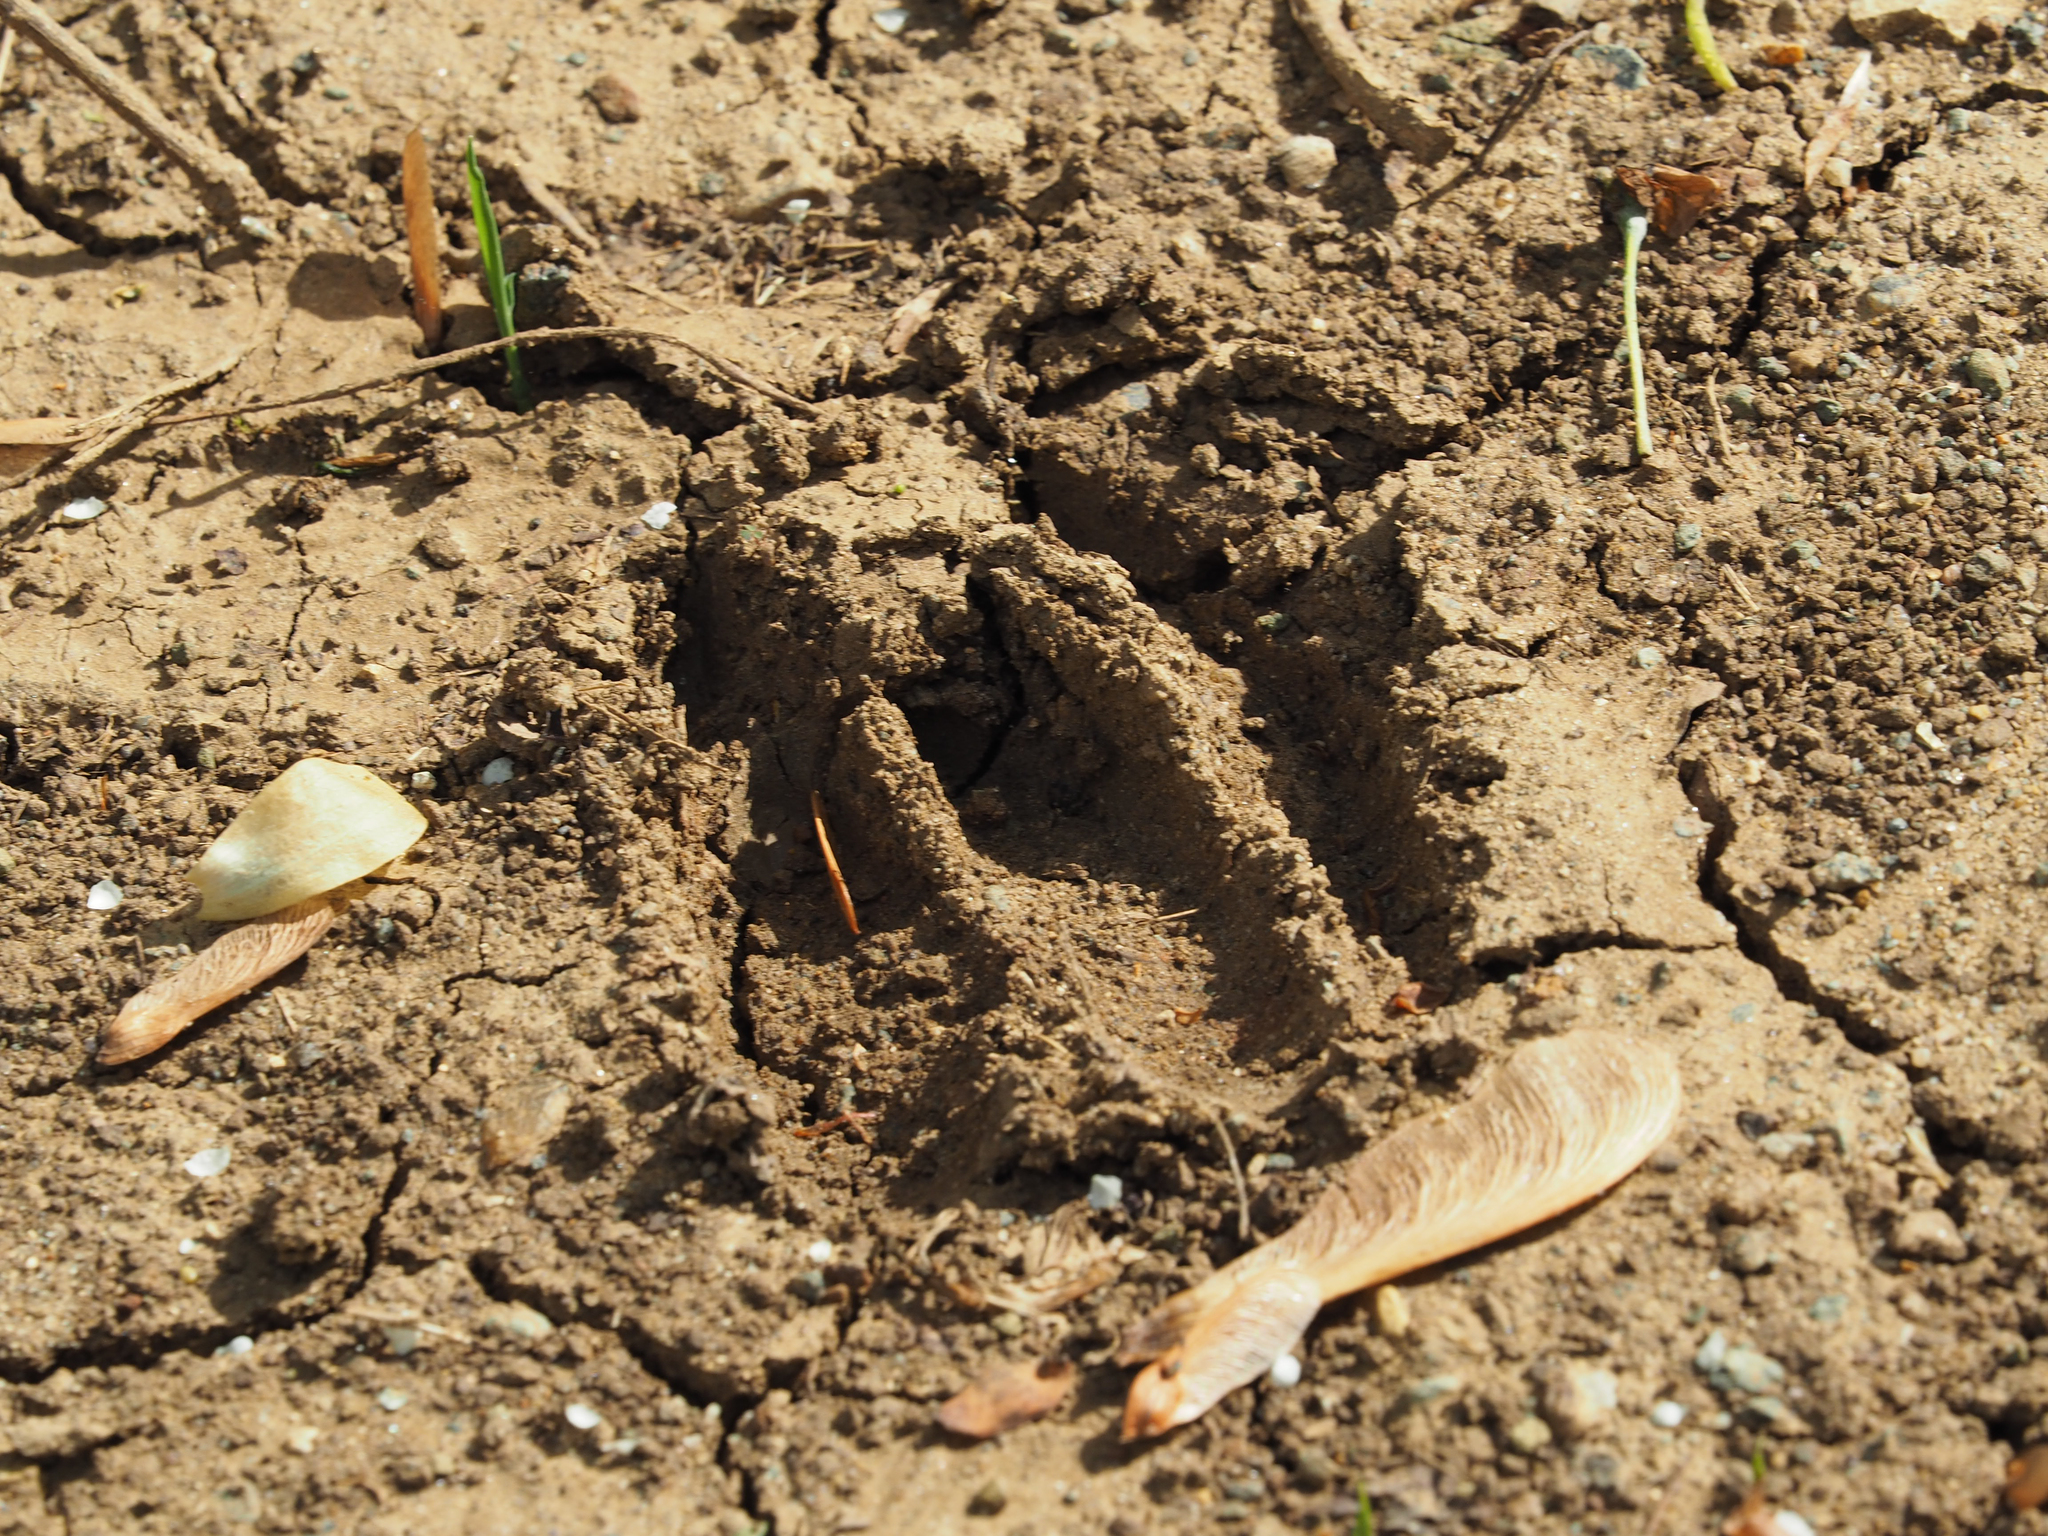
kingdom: Animalia
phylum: Chordata
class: Mammalia
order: Artiodactyla
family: Cervidae
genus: Odocoileus
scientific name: Odocoileus virginianus
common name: White-tailed deer
